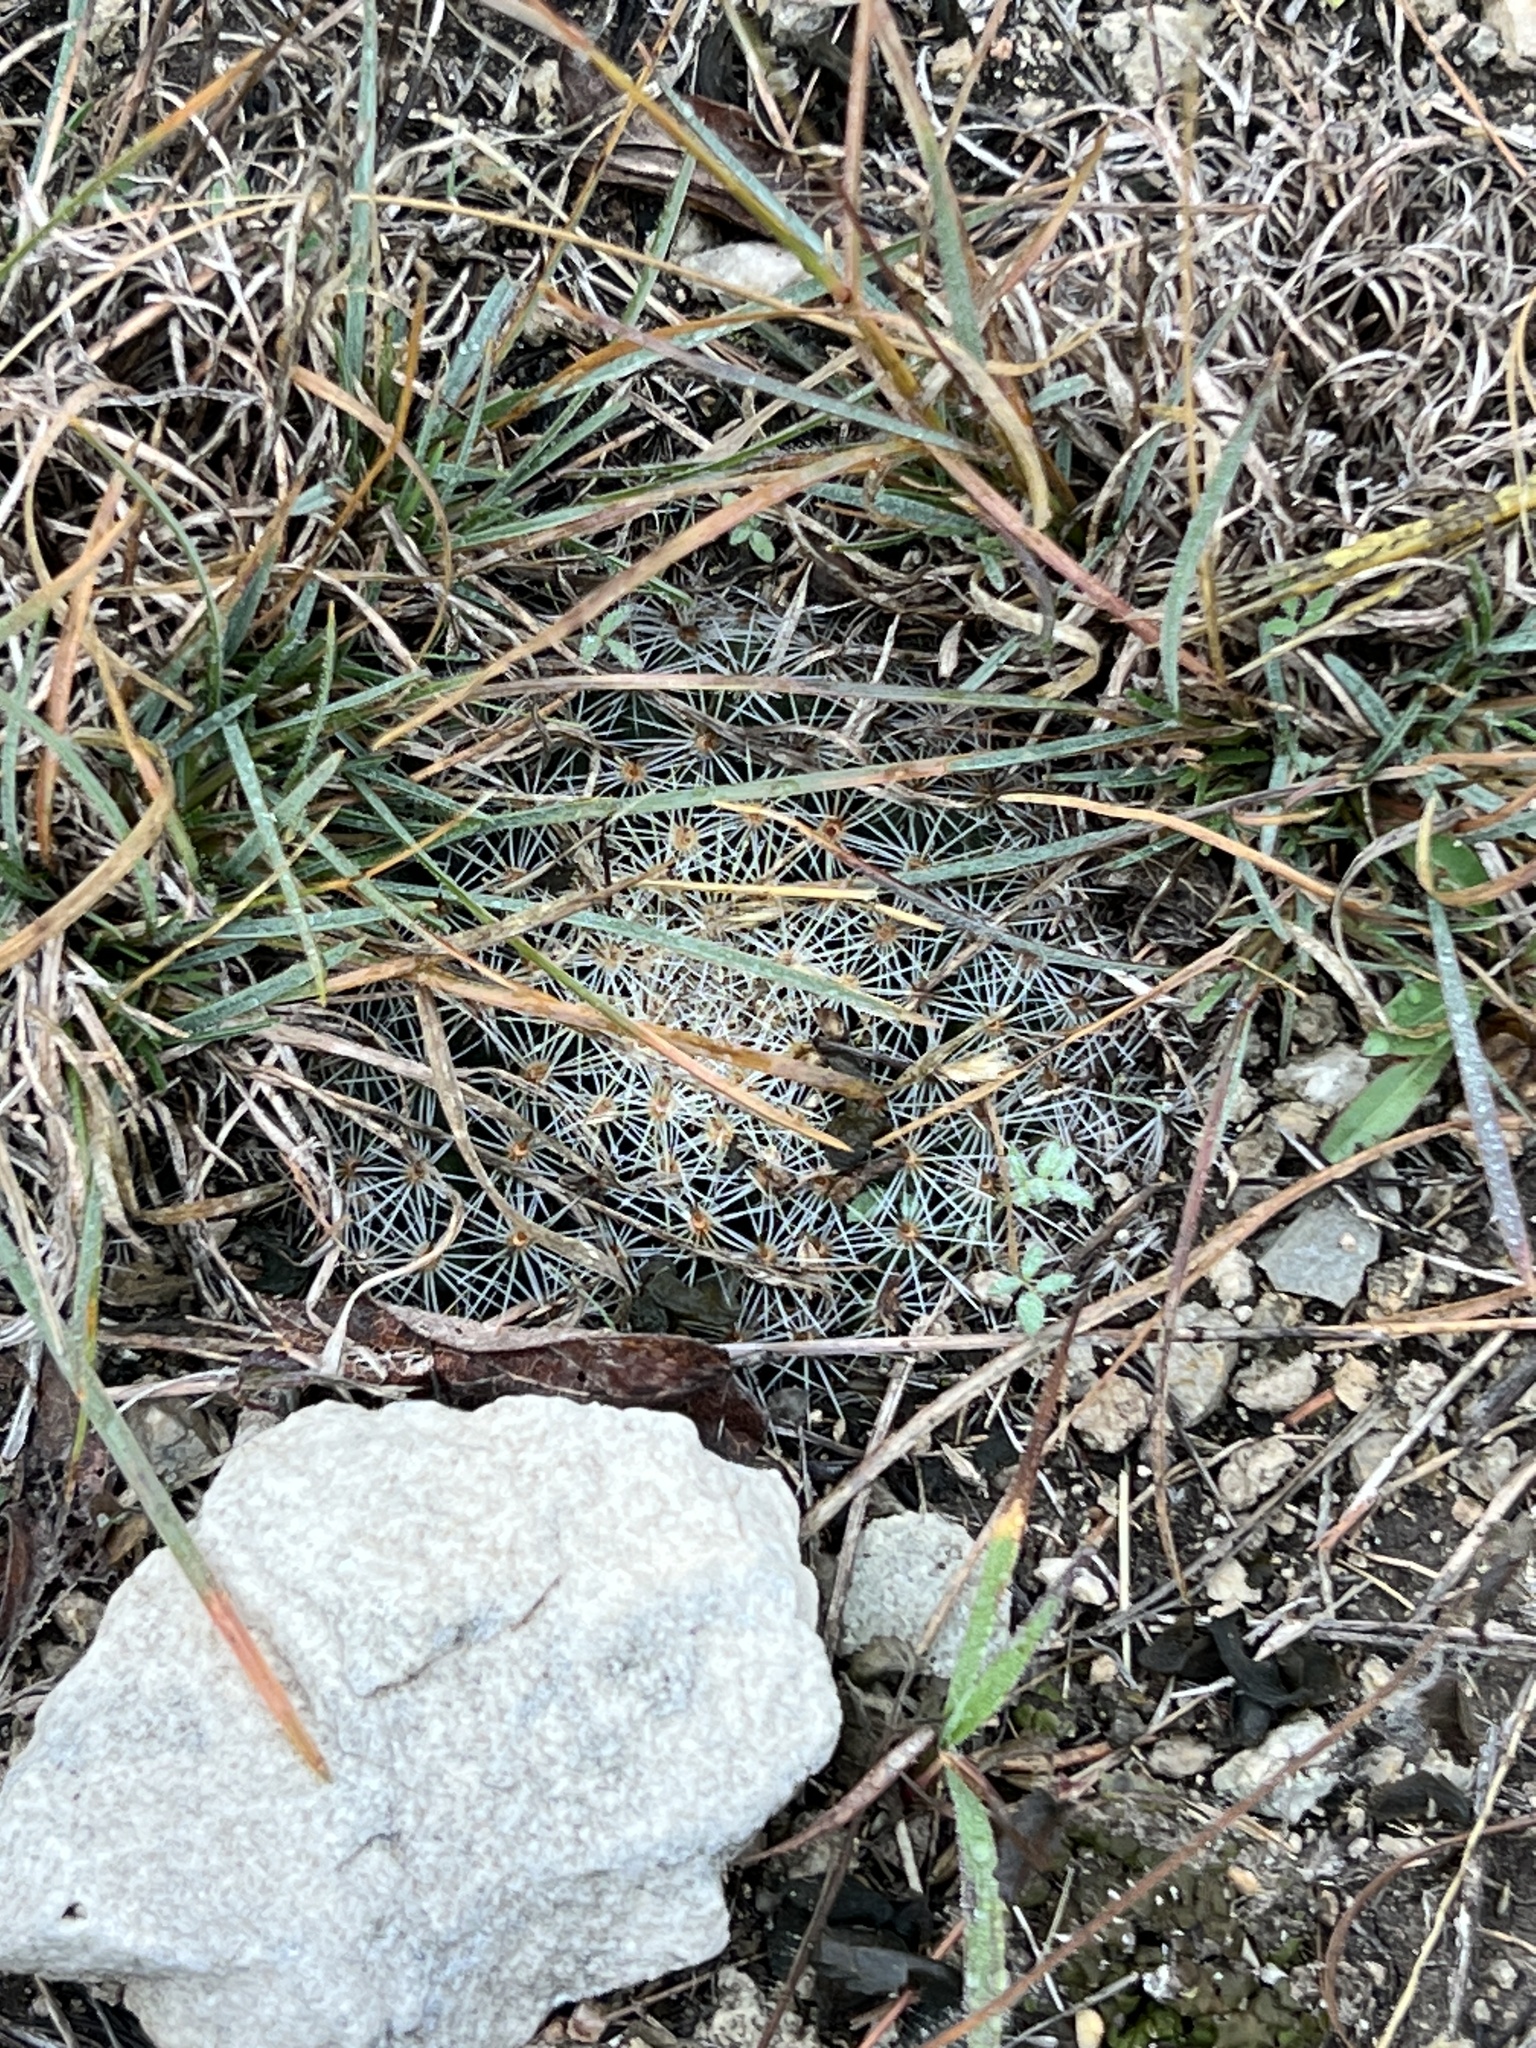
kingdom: Plantae
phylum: Tracheophyta
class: Magnoliopsida
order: Caryophyllales
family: Cactaceae
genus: Mammillaria
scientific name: Mammillaria heyderi
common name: Little nipple cactus
